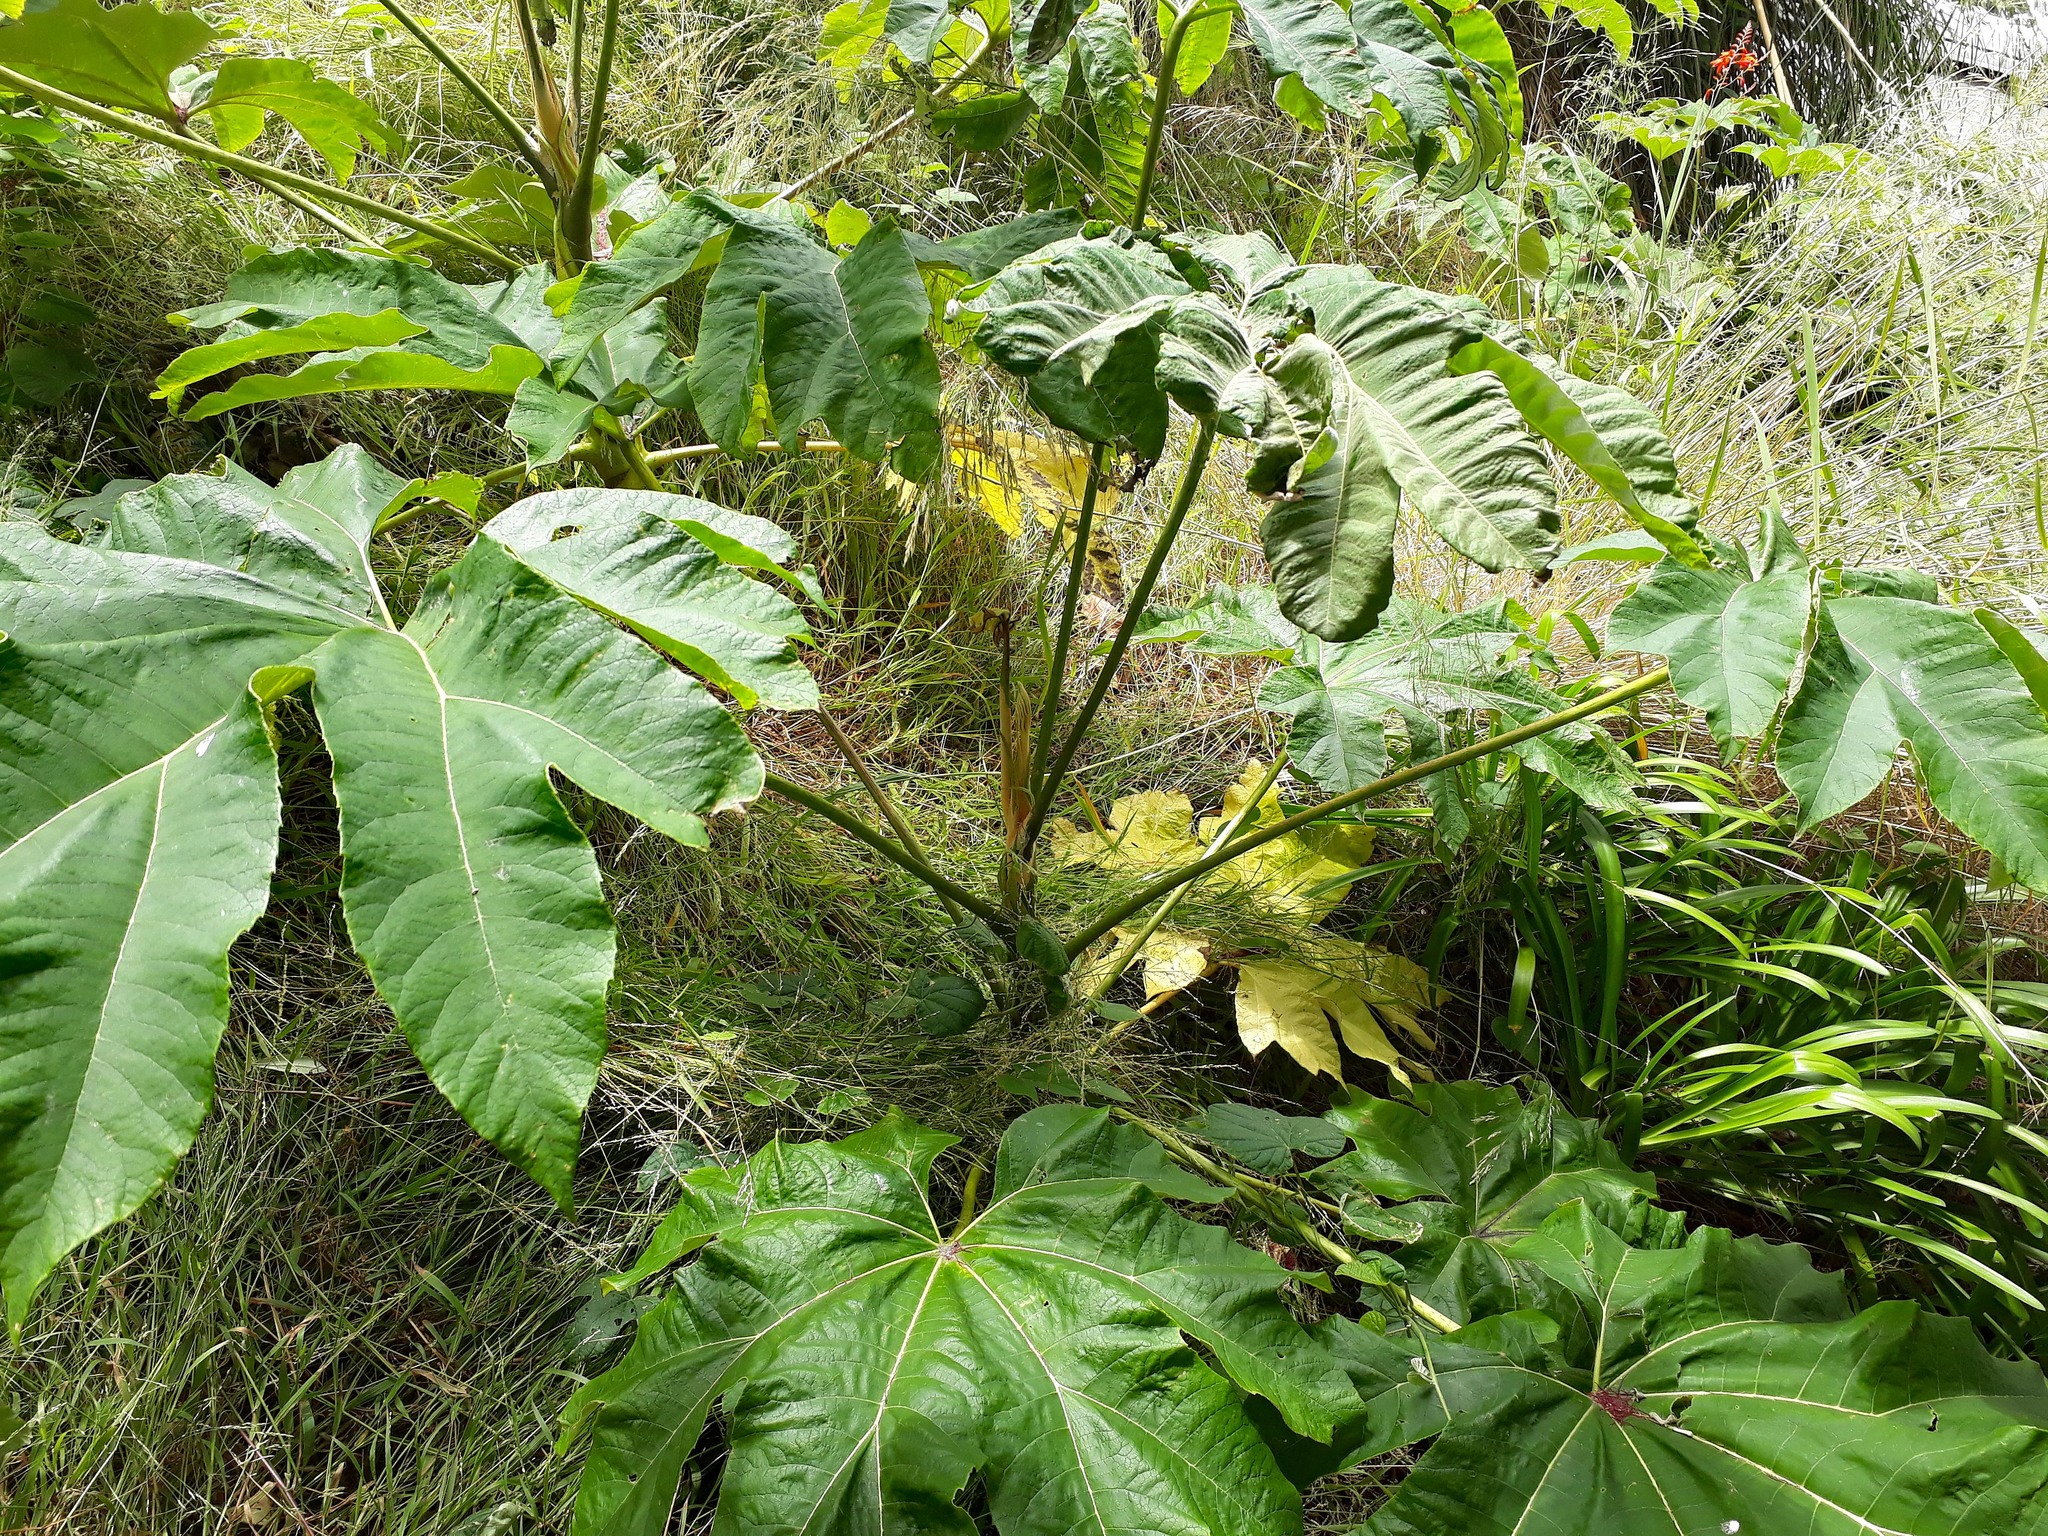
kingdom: Plantae
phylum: Tracheophyta
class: Magnoliopsida
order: Apiales
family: Araliaceae
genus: Tetrapanax
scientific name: Tetrapanax papyrifer
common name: Rice-paper plant
